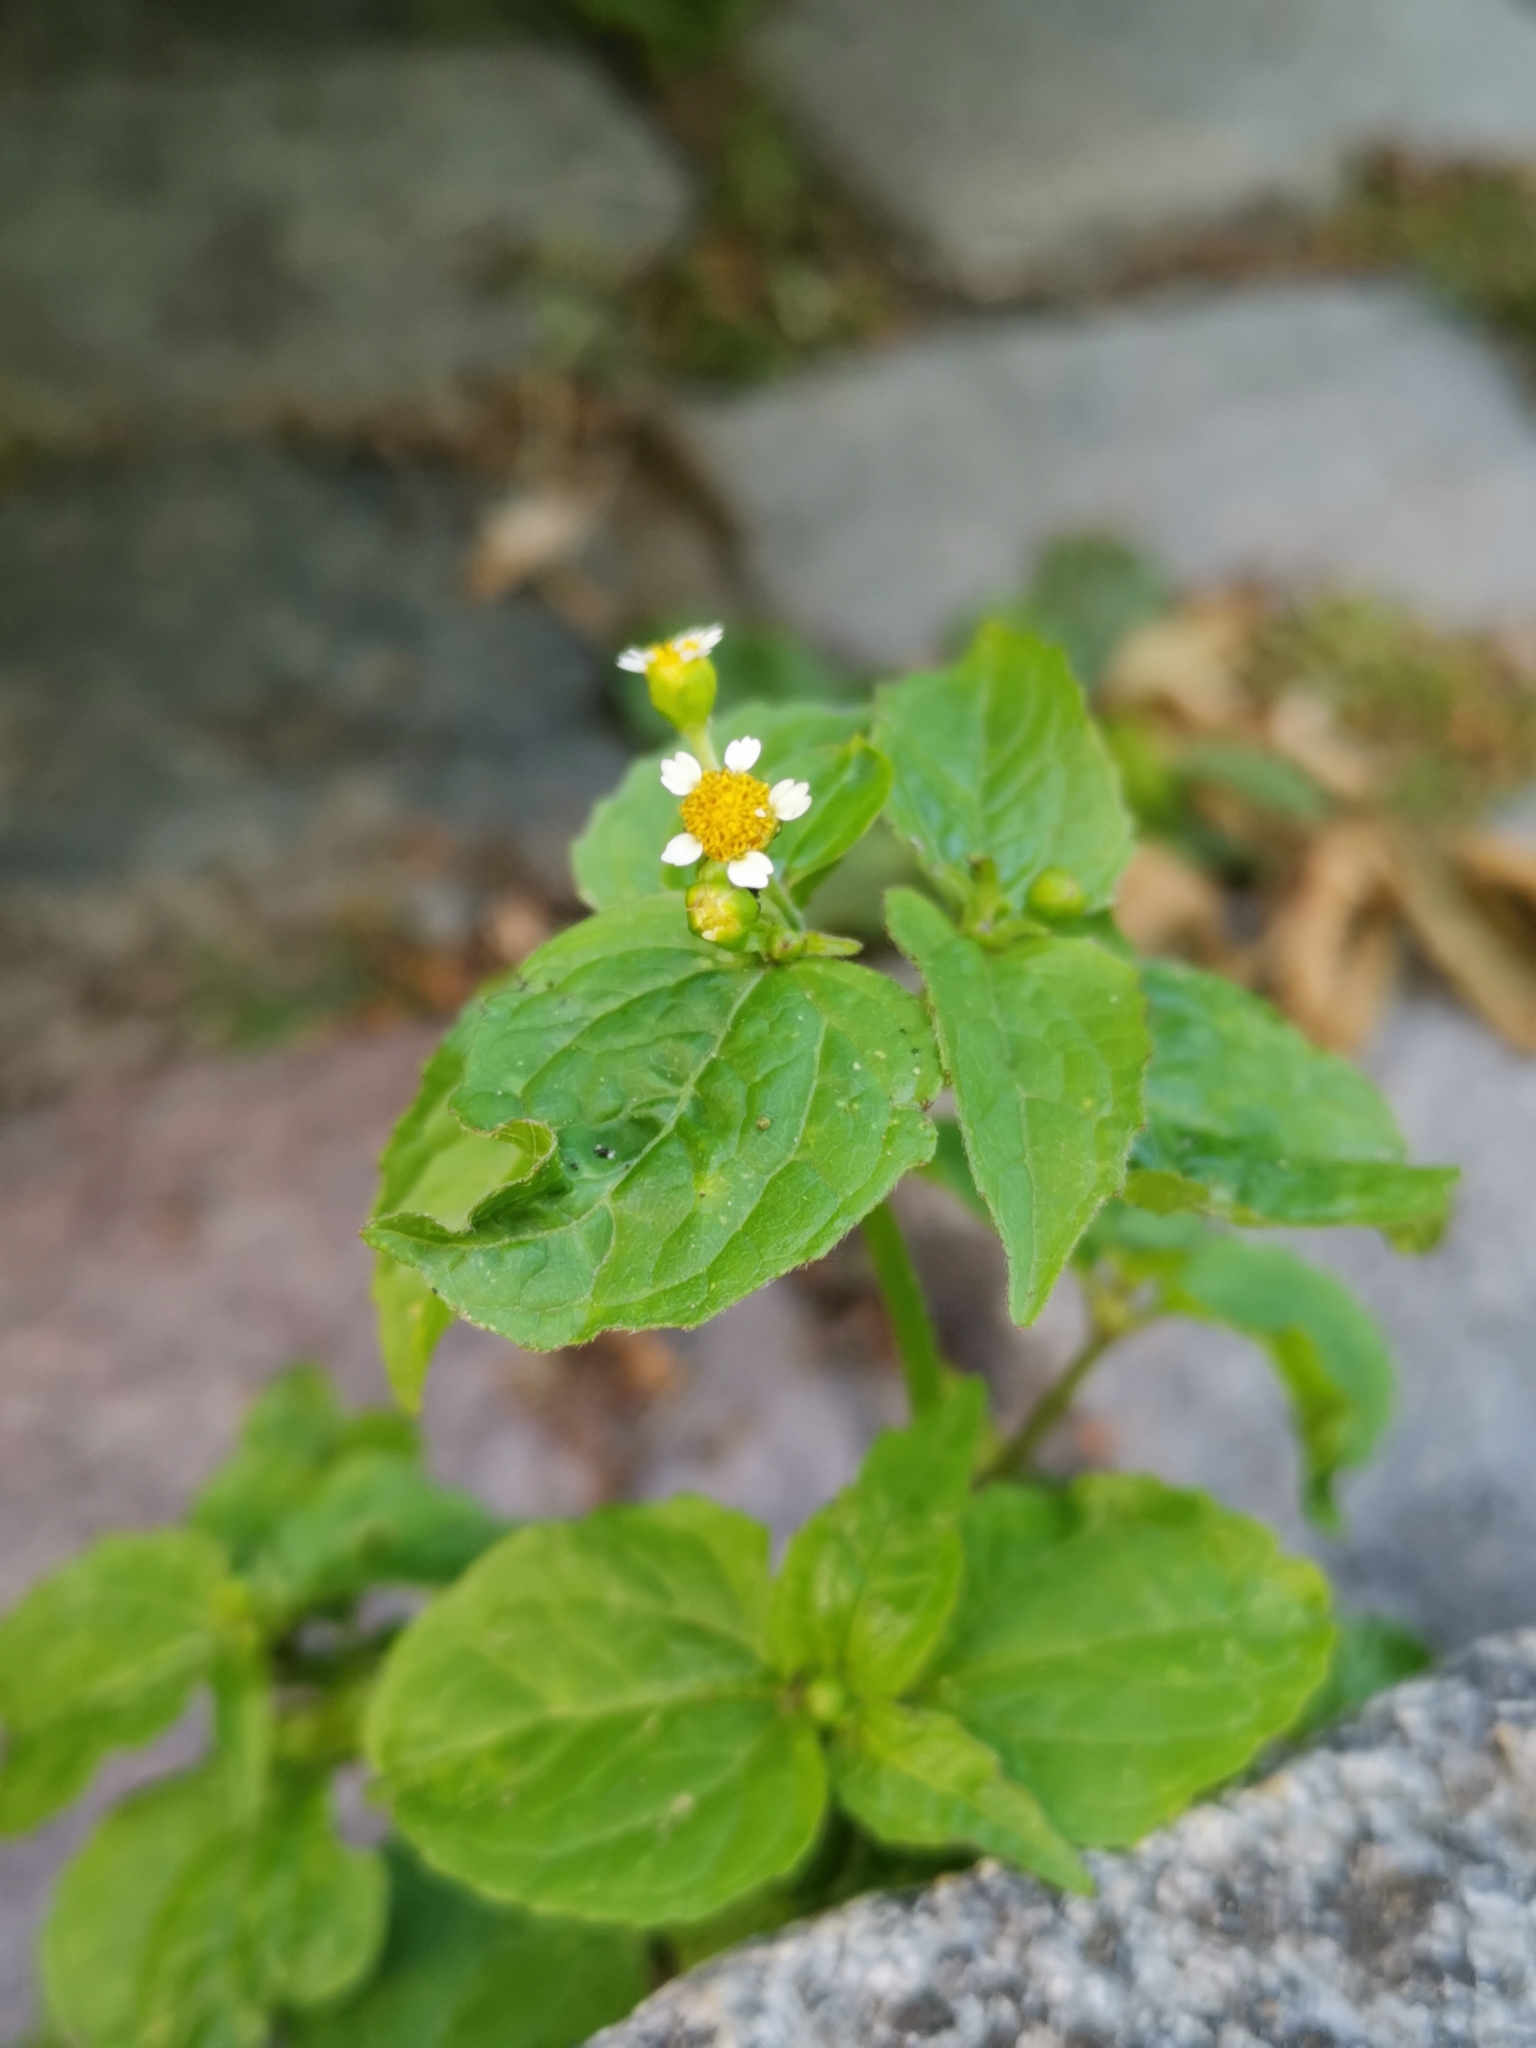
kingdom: Plantae
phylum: Tracheophyta
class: Magnoliopsida
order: Asterales
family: Asteraceae
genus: Galinsoga
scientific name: Galinsoga parviflora
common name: Gallant soldier
